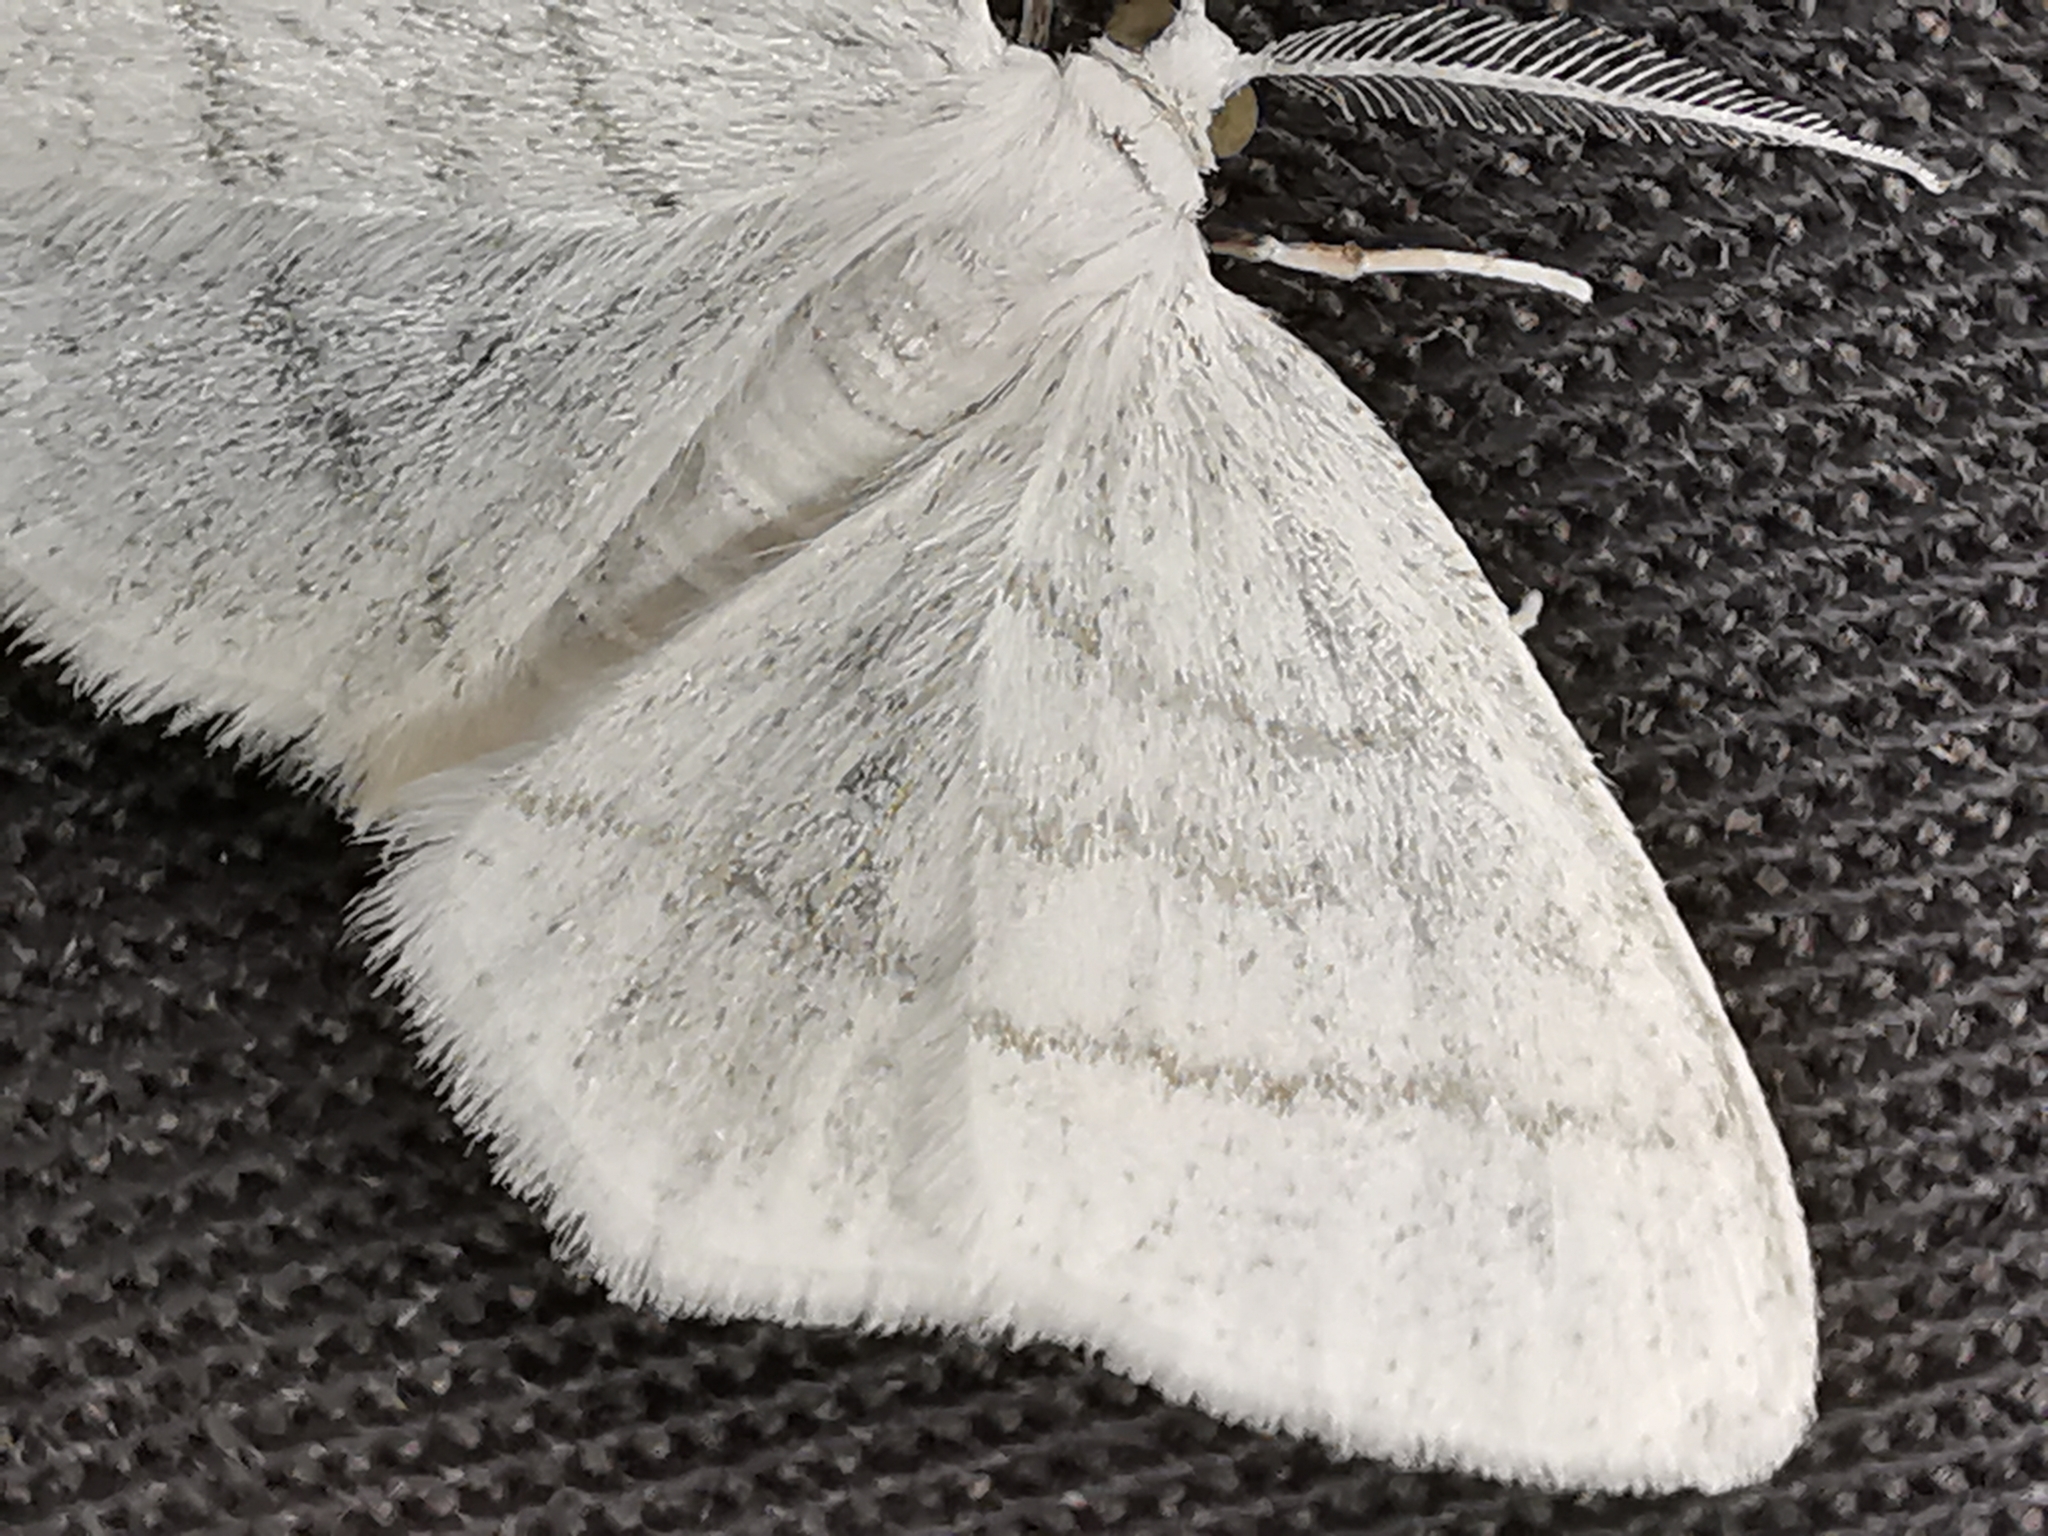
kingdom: Animalia
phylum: Arthropoda
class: Insecta
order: Lepidoptera
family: Geometridae
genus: Cabera
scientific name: Cabera pusaria
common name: Common white wave
